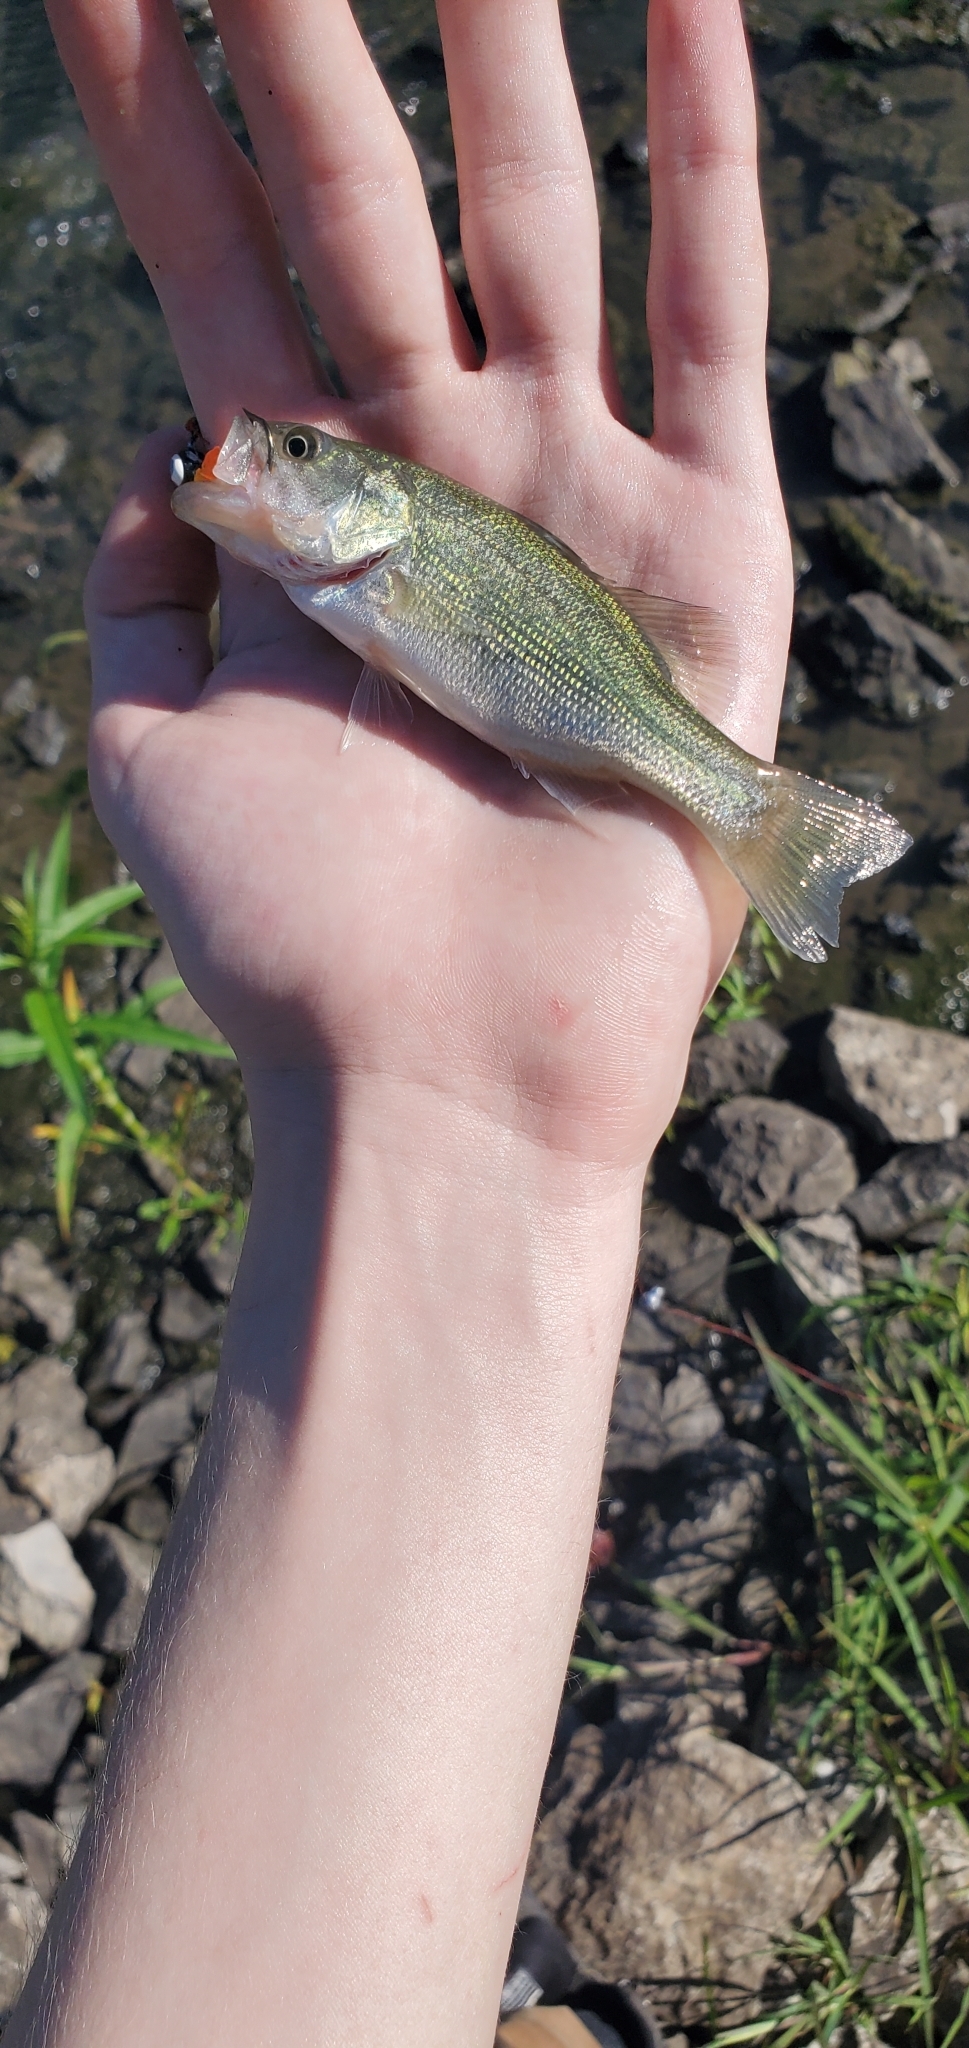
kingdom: Animalia
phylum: Chordata
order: Perciformes
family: Centrarchidae
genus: Micropterus
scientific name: Micropterus
